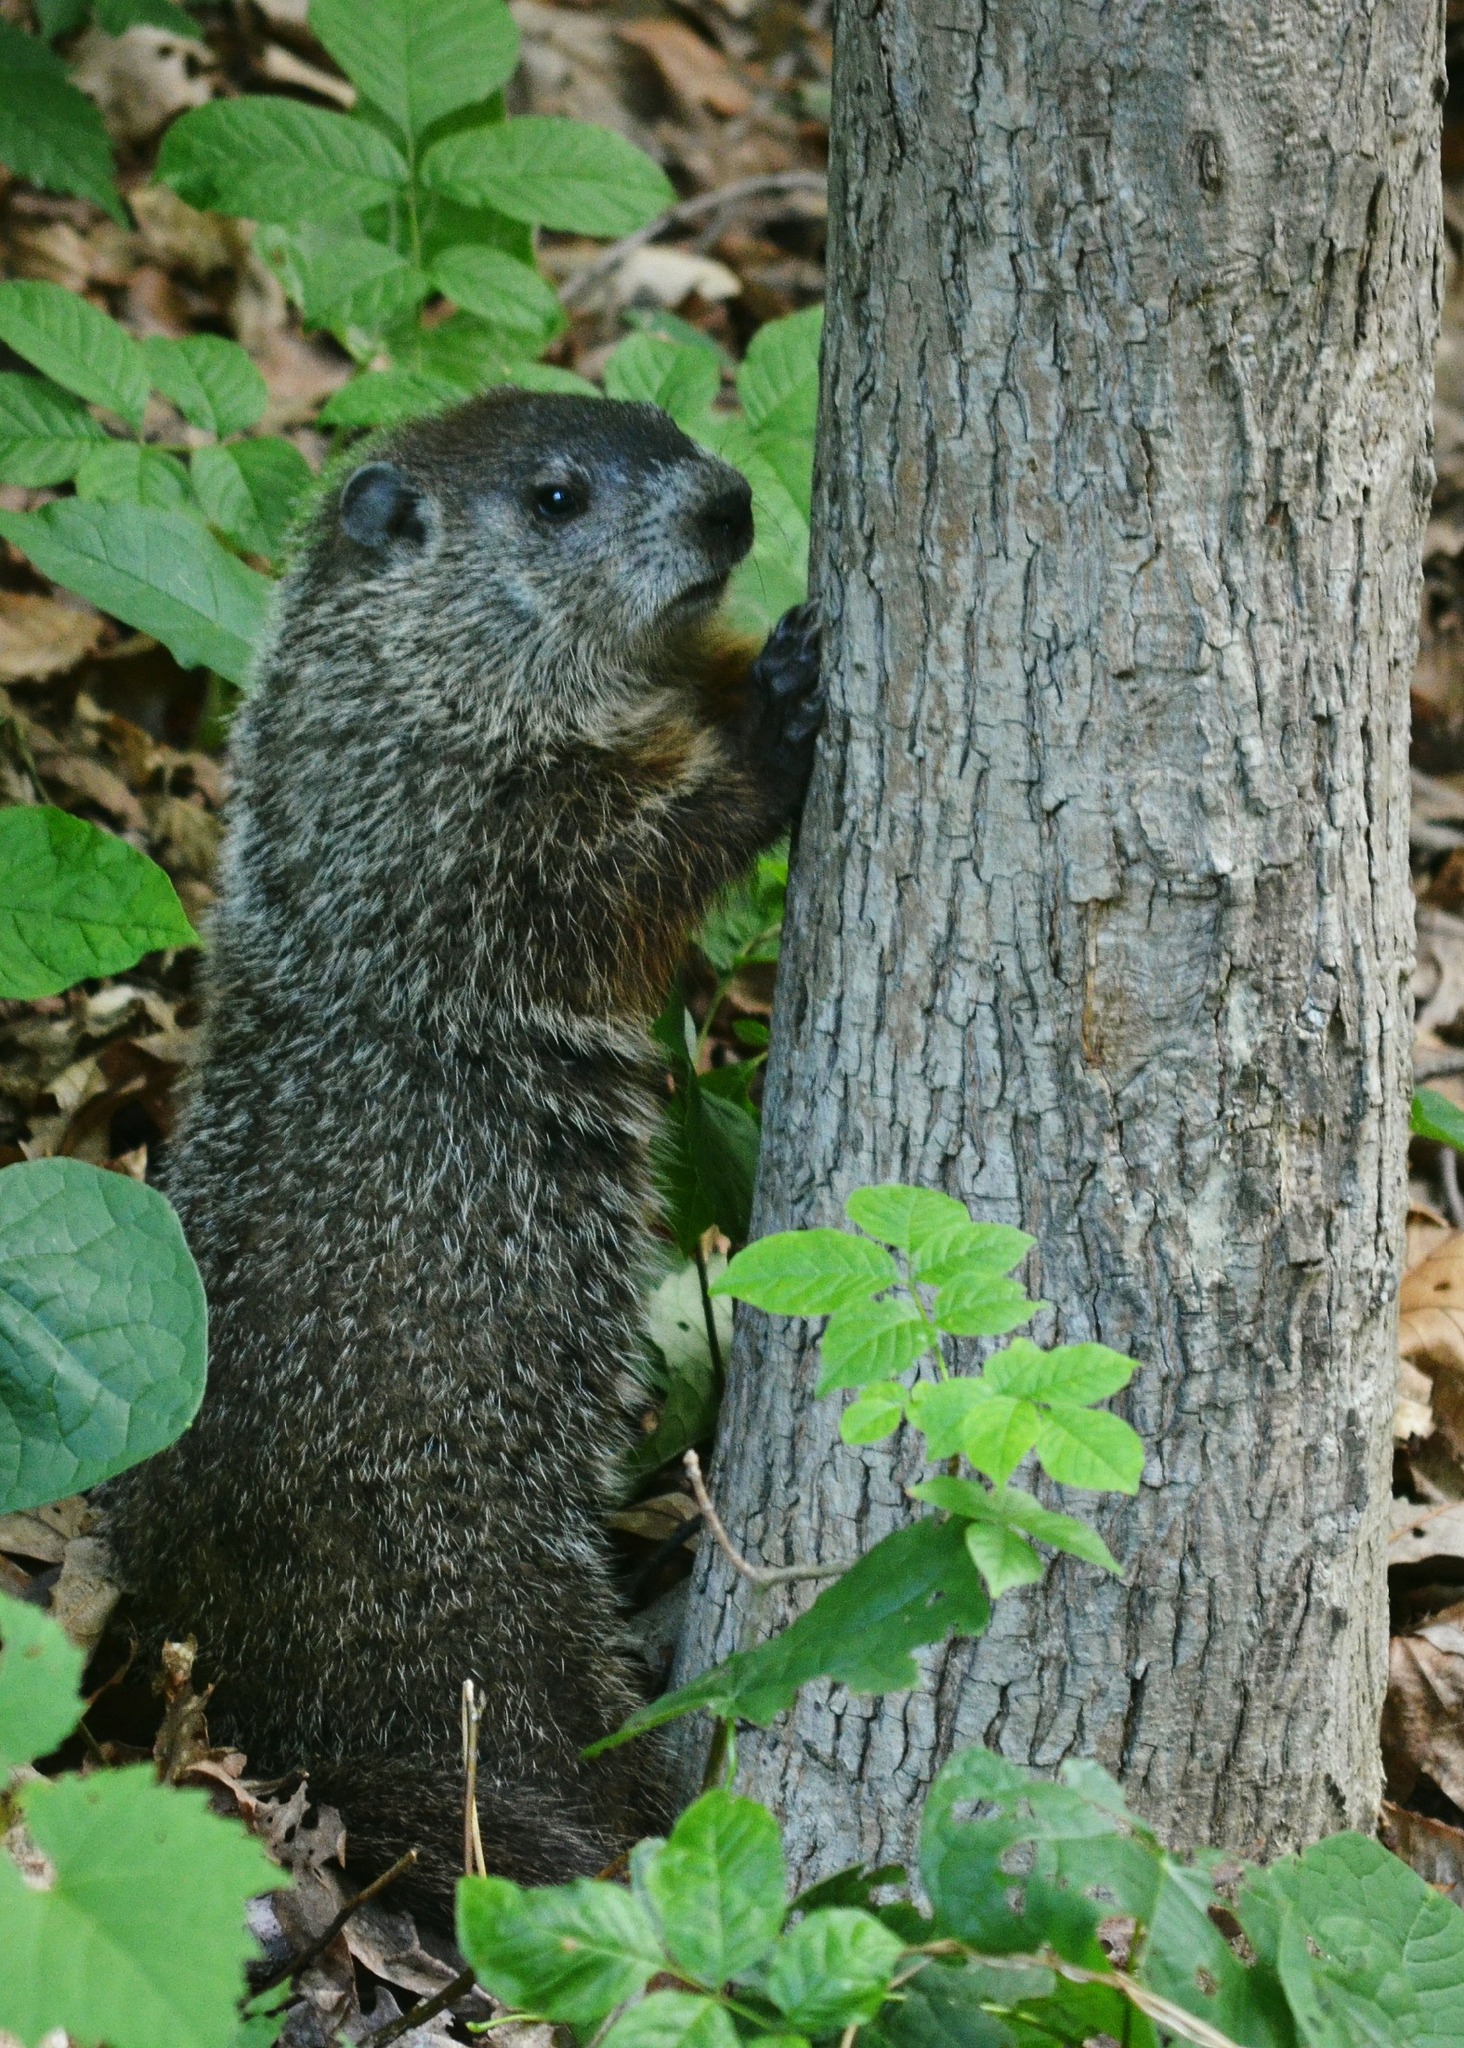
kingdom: Animalia
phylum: Chordata
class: Mammalia
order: Rodentia
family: Sciuridae
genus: Marmota
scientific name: Marmota monax
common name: Groundhog
